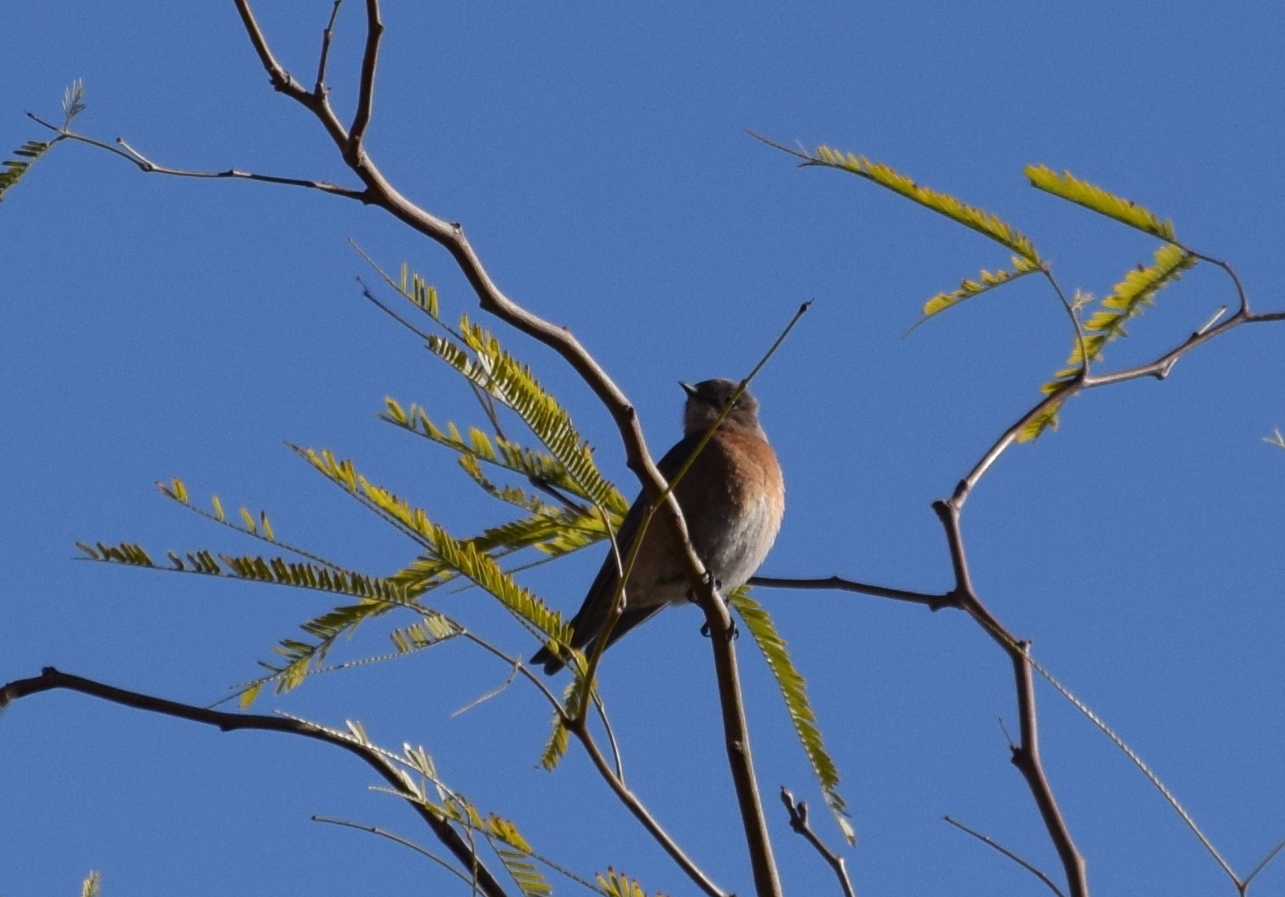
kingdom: Animalia
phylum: Chordata
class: Aves
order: Passeriformes
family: Turdidae
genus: Sialia
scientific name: Sialia mexicana
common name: Western bluebird
